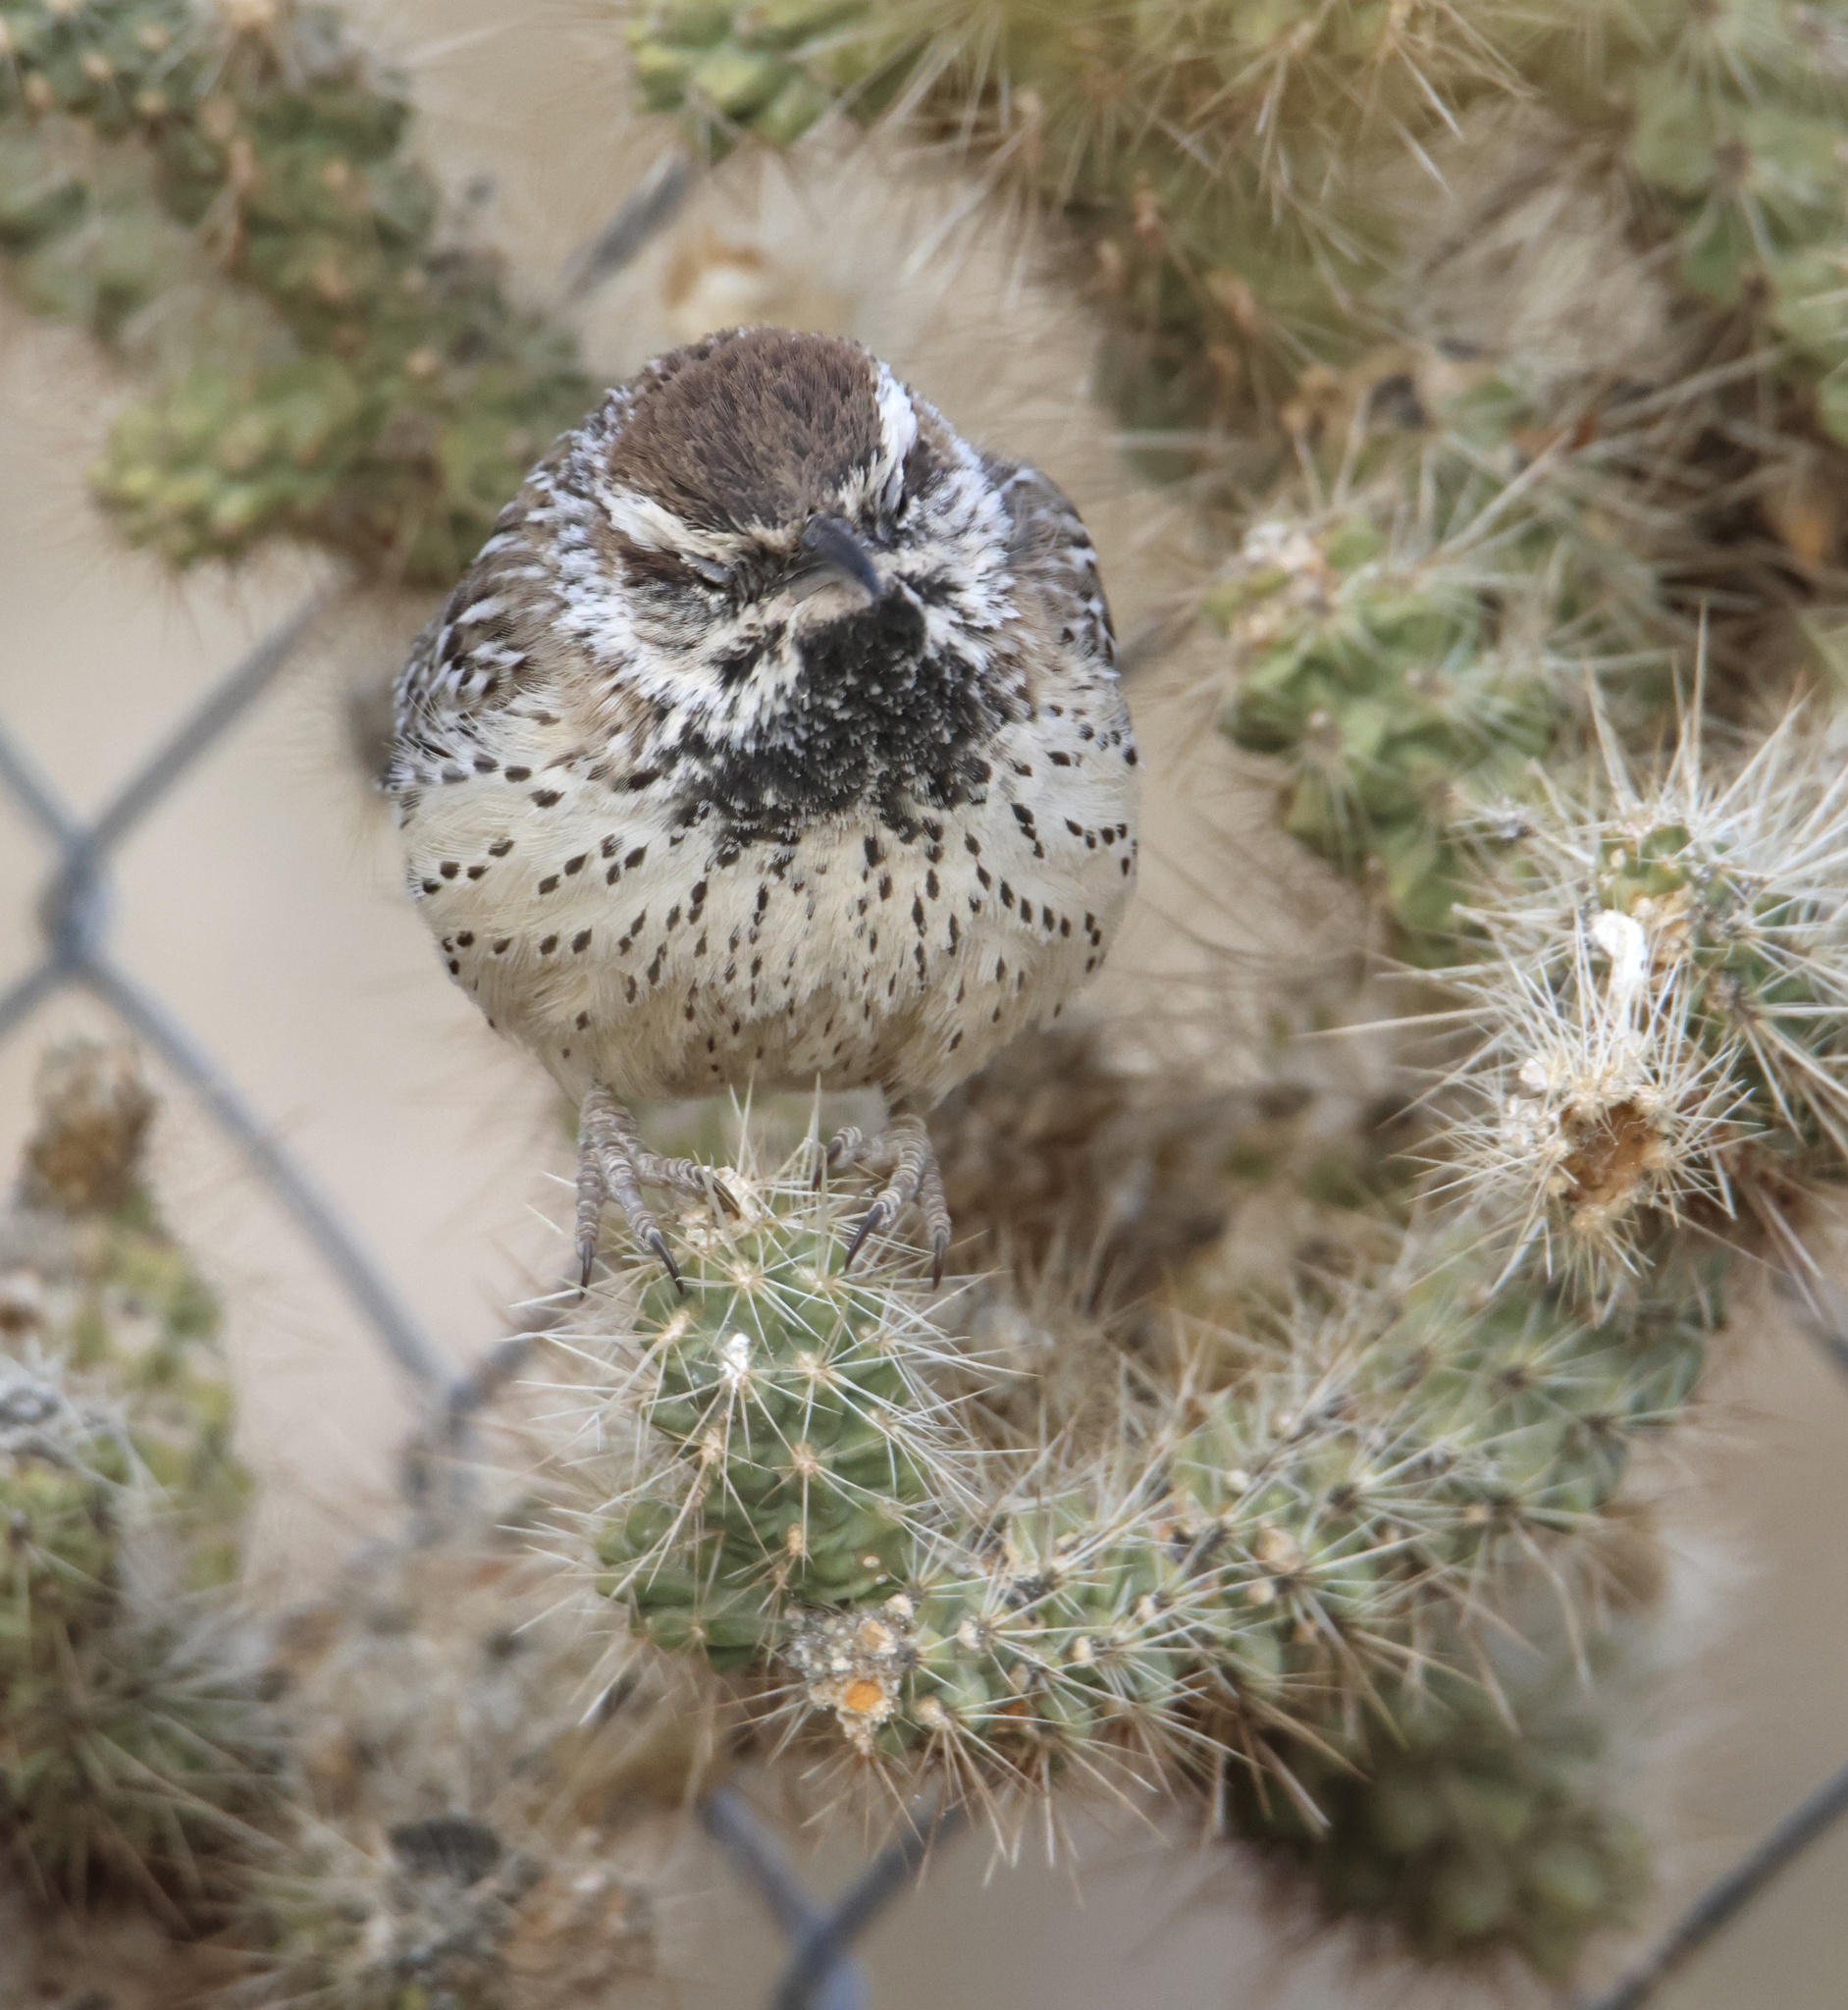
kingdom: Animalia
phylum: Chordata
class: Aves
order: Passeriformes
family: Troglodytidae
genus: Campylorhynchus
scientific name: Campylorhynchus brunneicapillus
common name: Cactus wren
